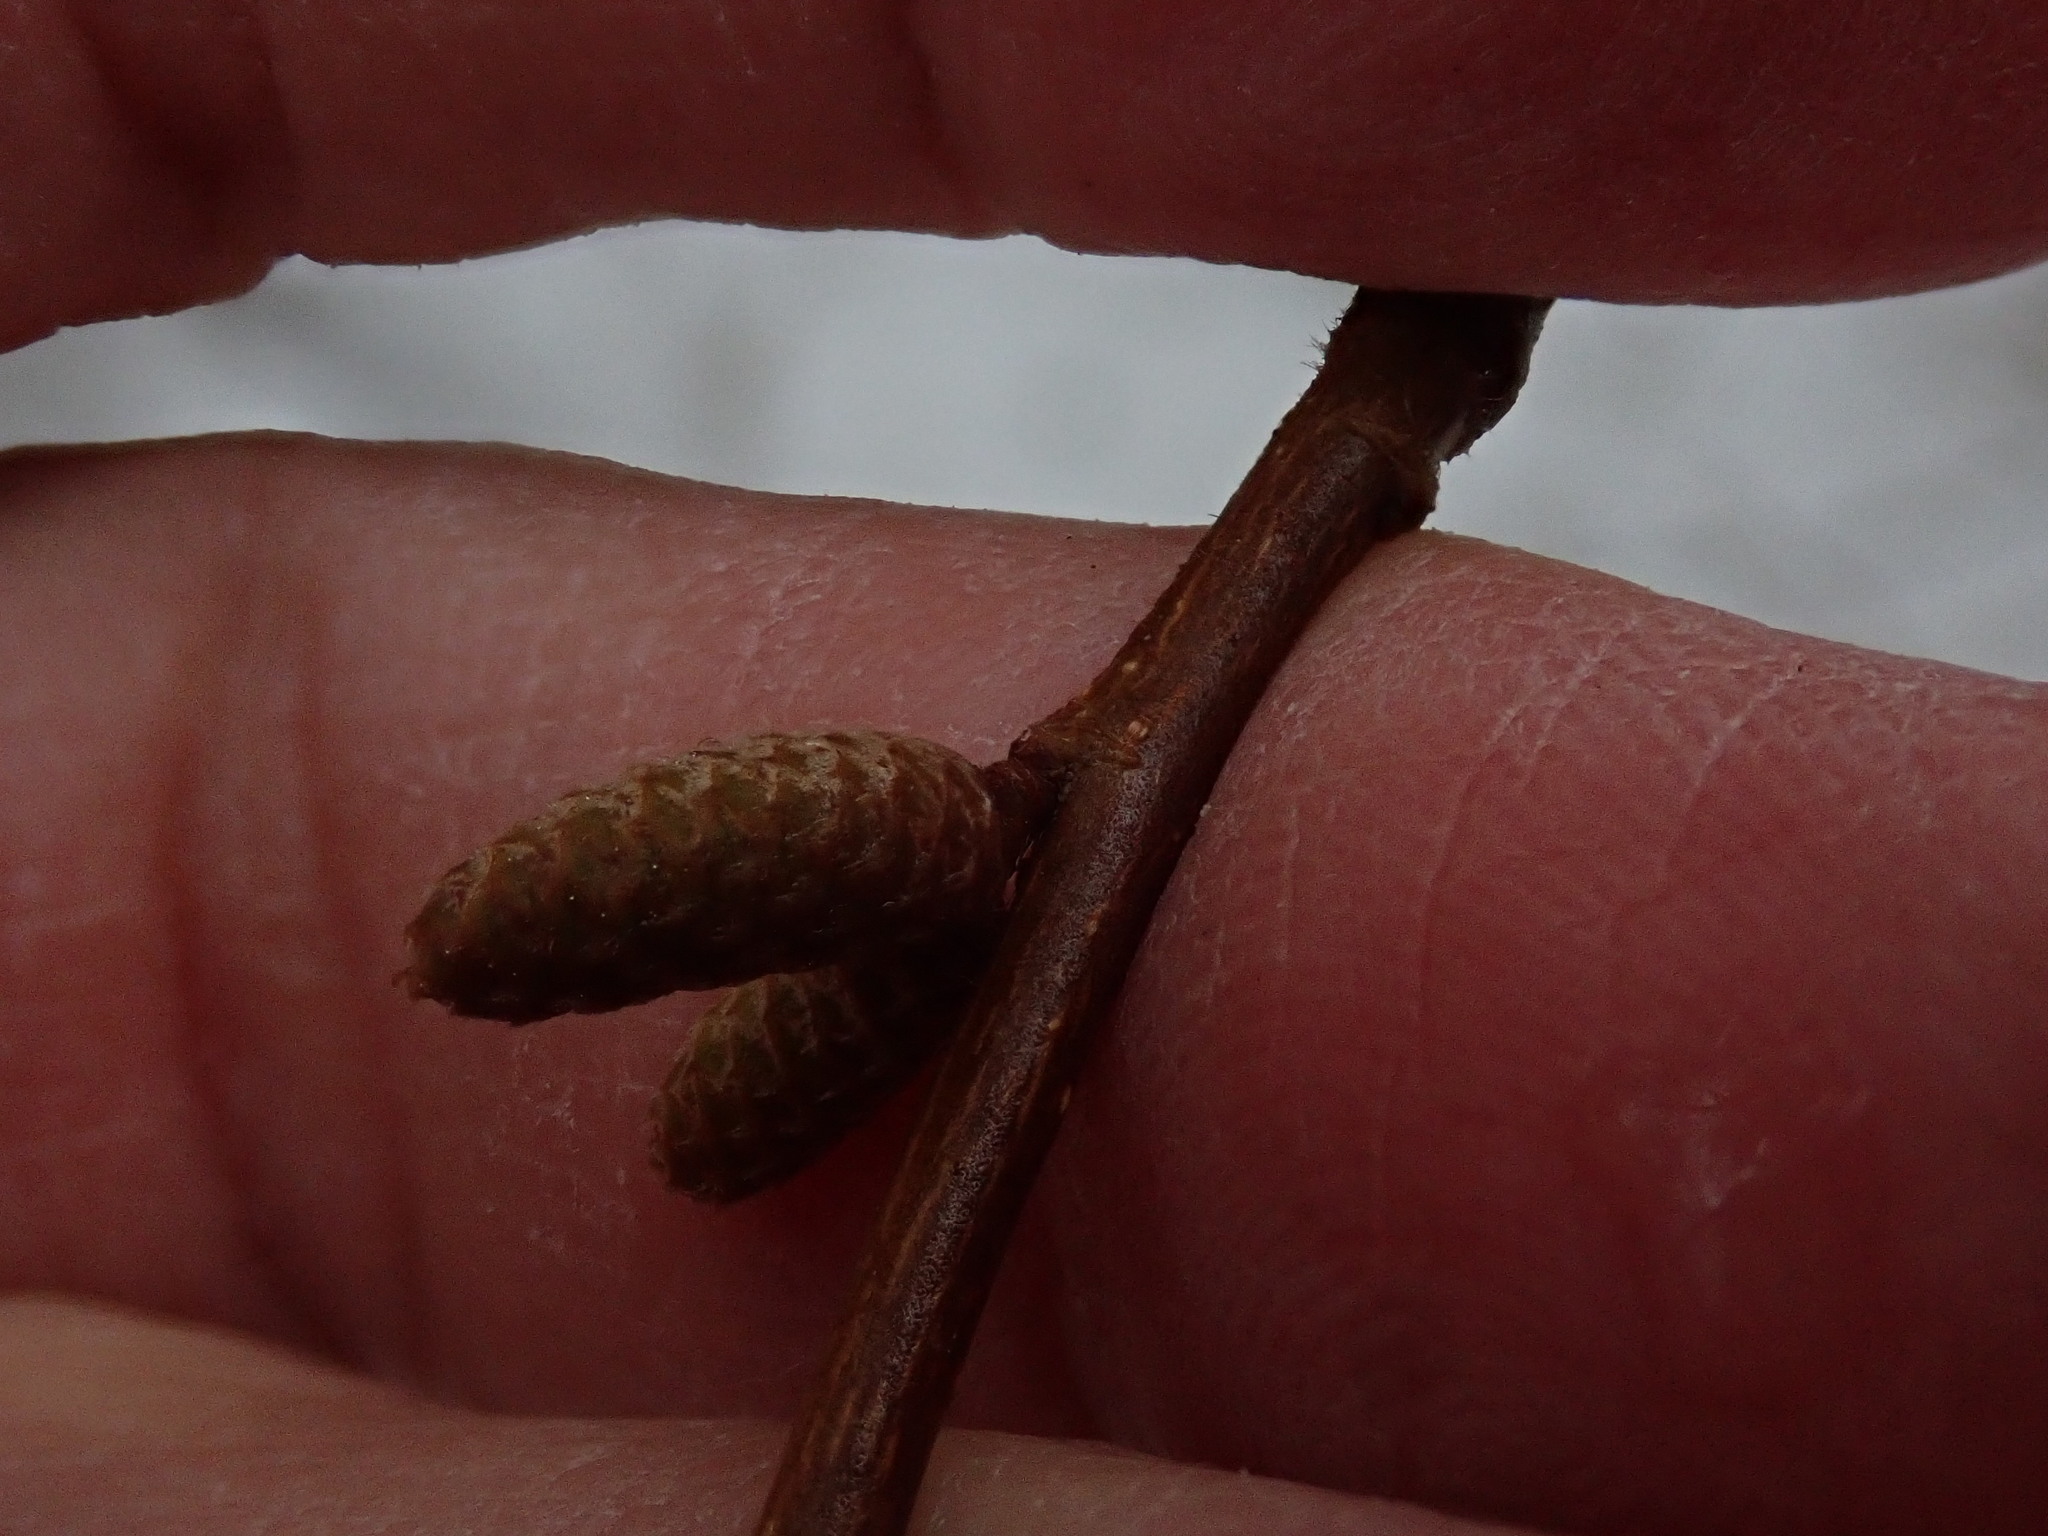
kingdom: Plantae
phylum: Tracheophyta
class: Magnoliopsida
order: Fagales
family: Betulaceae
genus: Corylus
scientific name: Corylus cornuta
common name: Beaked hazel
